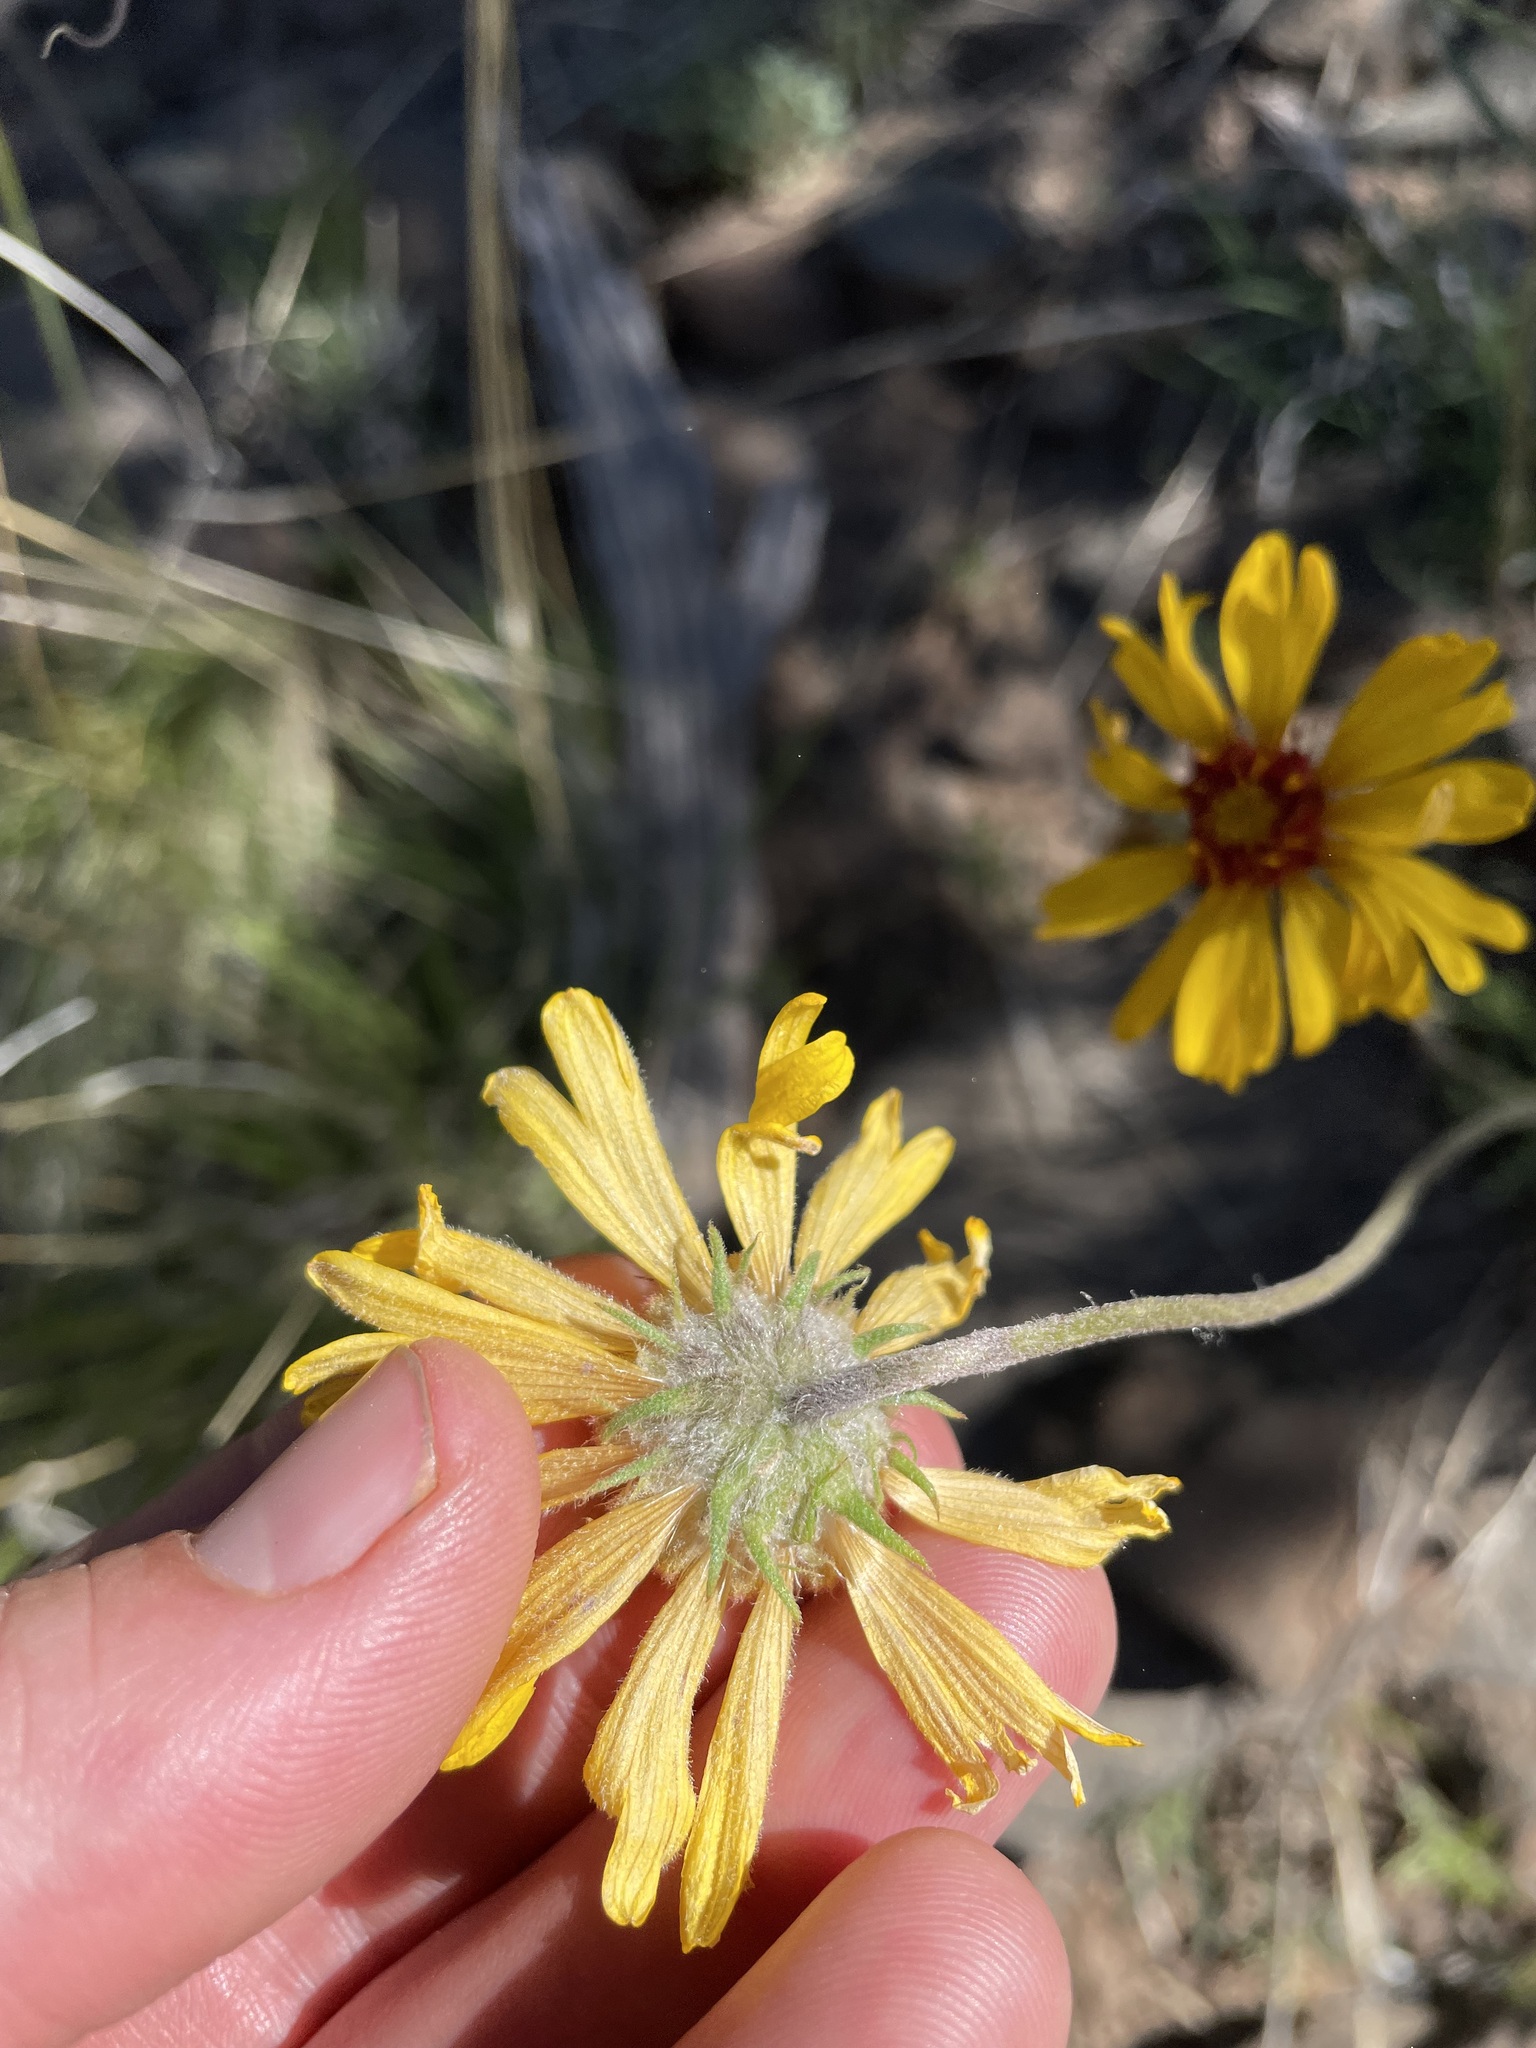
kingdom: Plantae
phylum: Tracheophyta
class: Magnoliopsida
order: Asterales
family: Asteraceae
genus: Gaillardia
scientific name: Gaillardia pinnatifida
